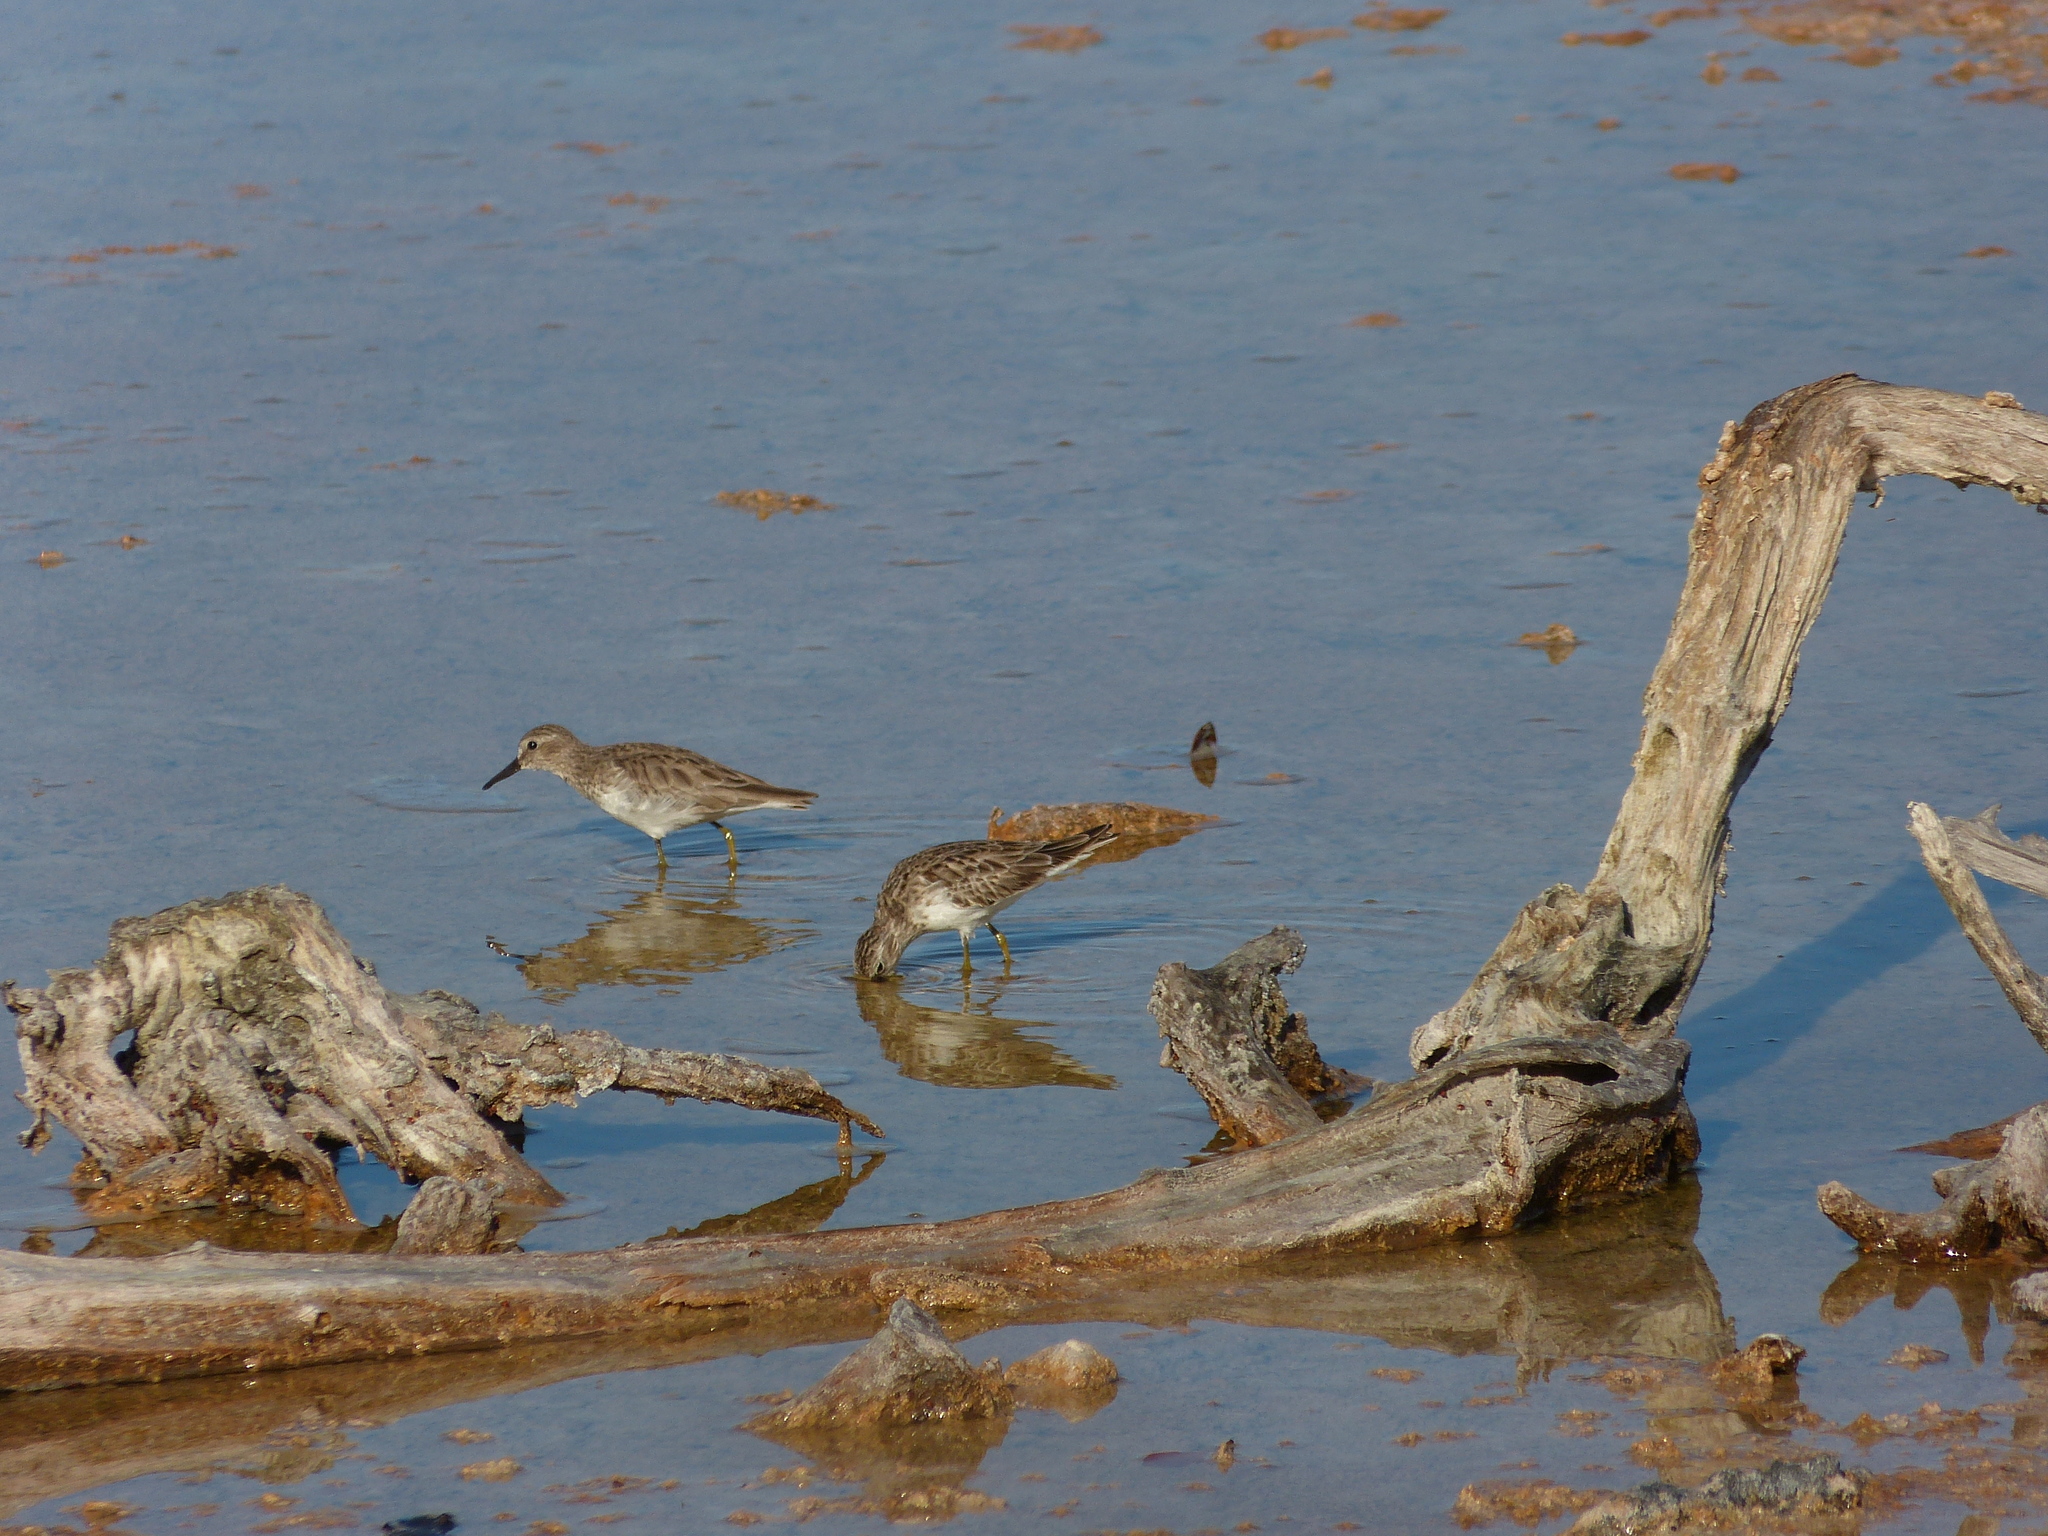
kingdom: Animalia
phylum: Chordata
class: Aves
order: Charadriiformes
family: Scolopacidae
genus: Calidris
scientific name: Calidris minutilla
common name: Least sandpiper
